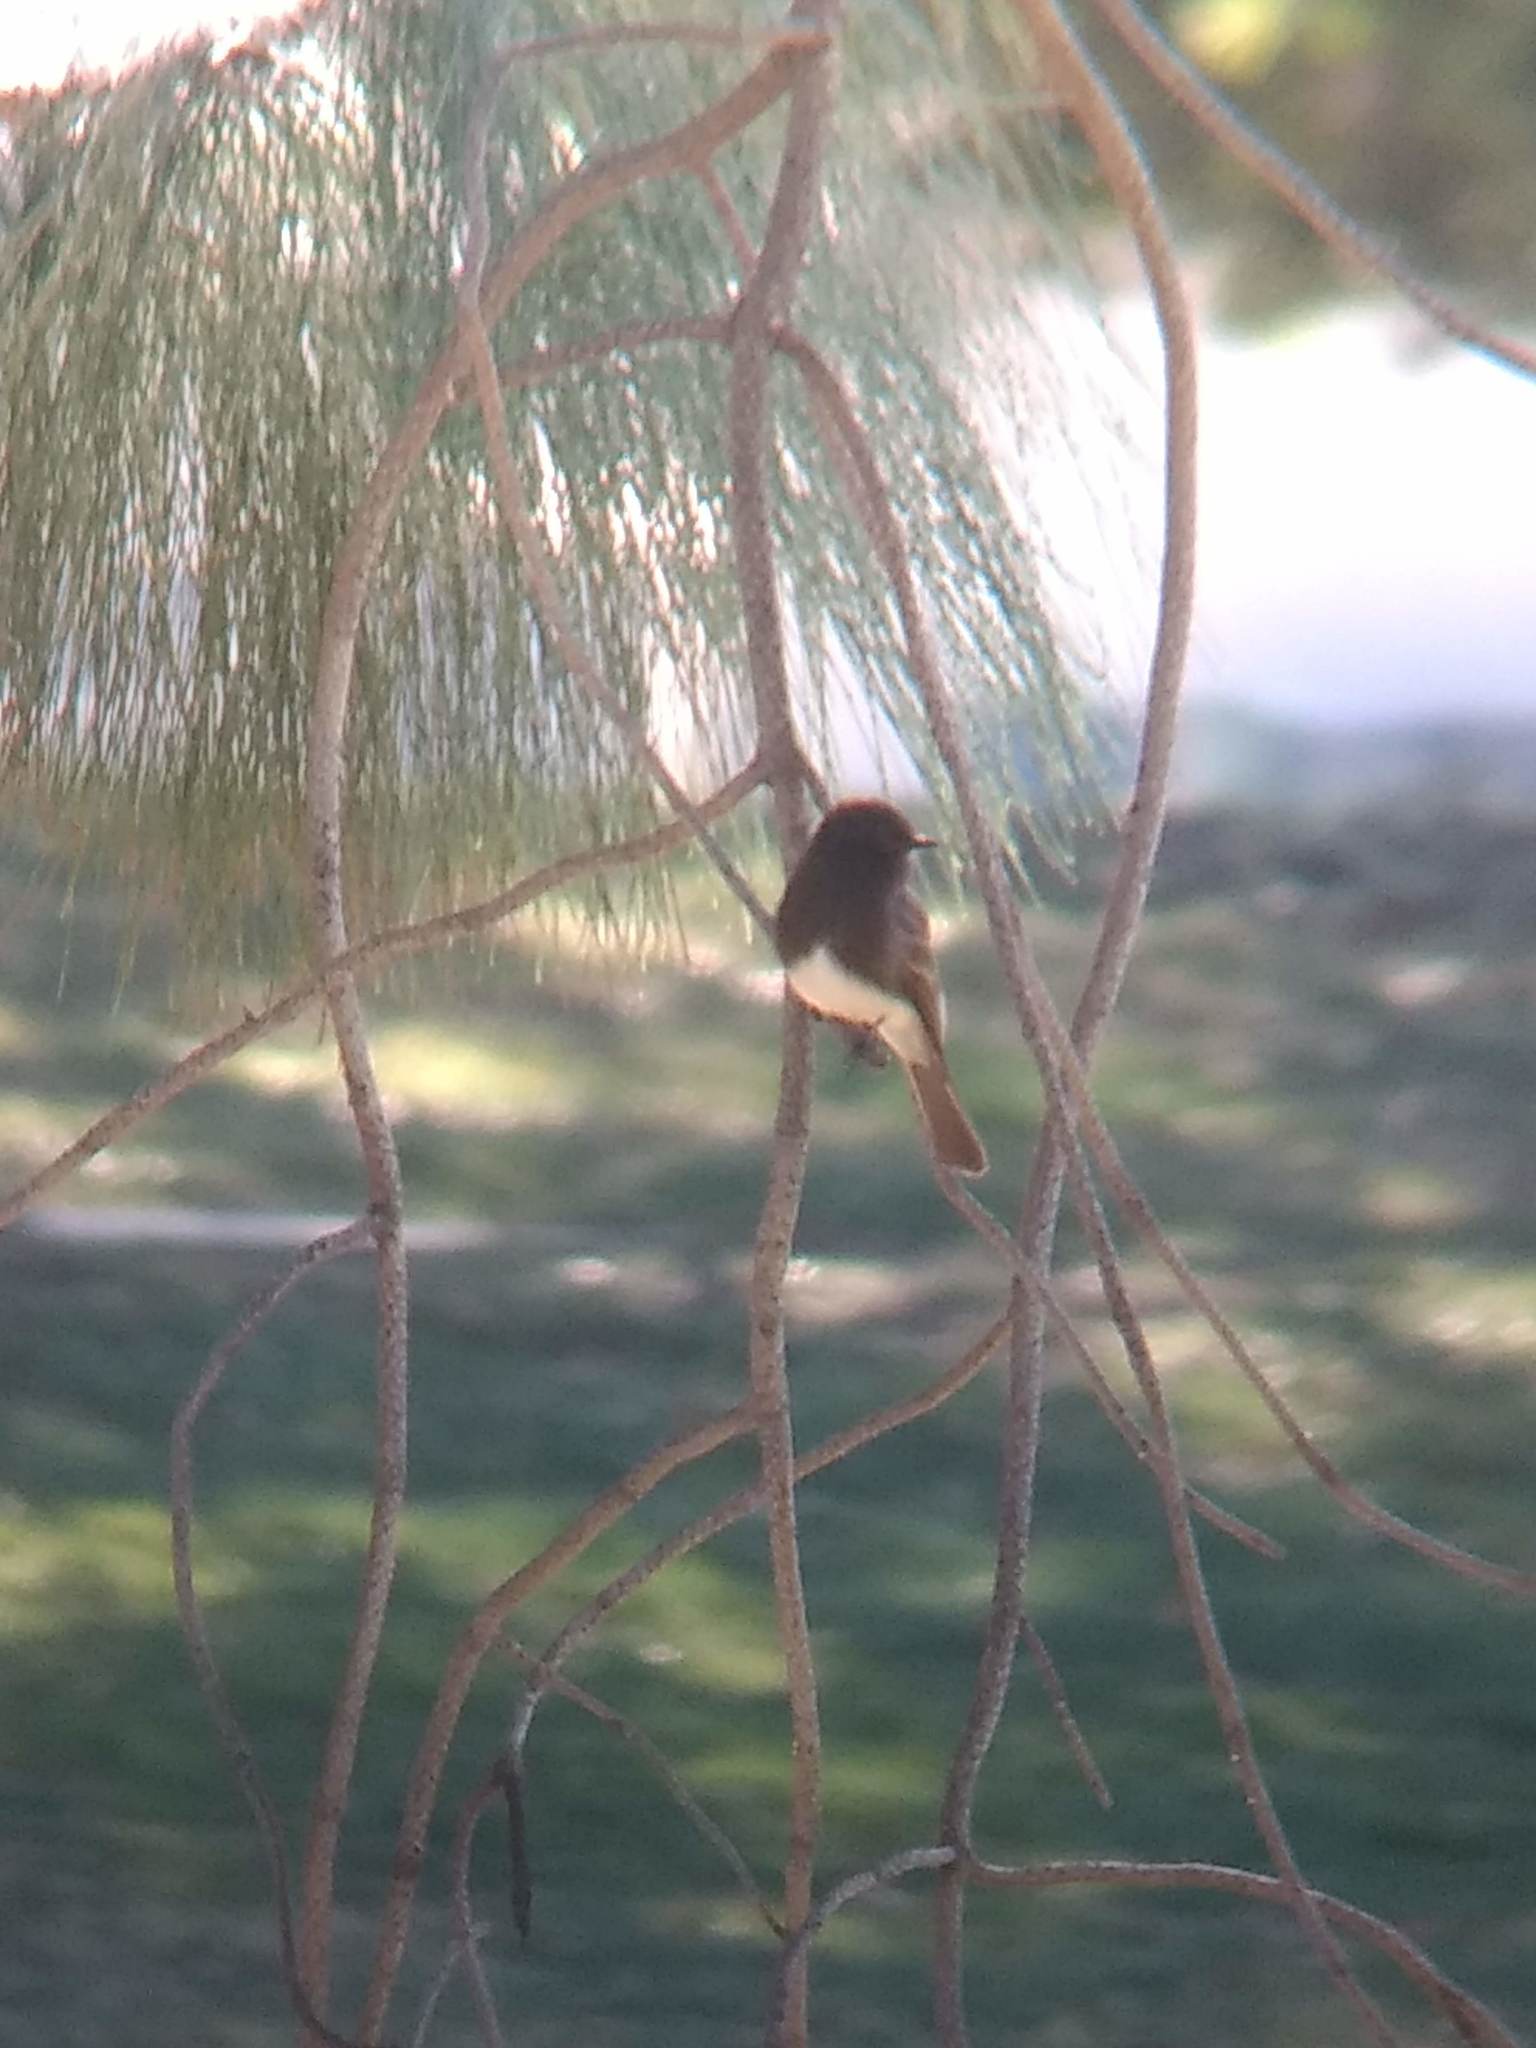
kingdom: Animalia
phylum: Chordata
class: Aves
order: Passeriformes
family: Tyrannidae
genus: Sayornis
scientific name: Sayornis nigricans
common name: Black phoebe
